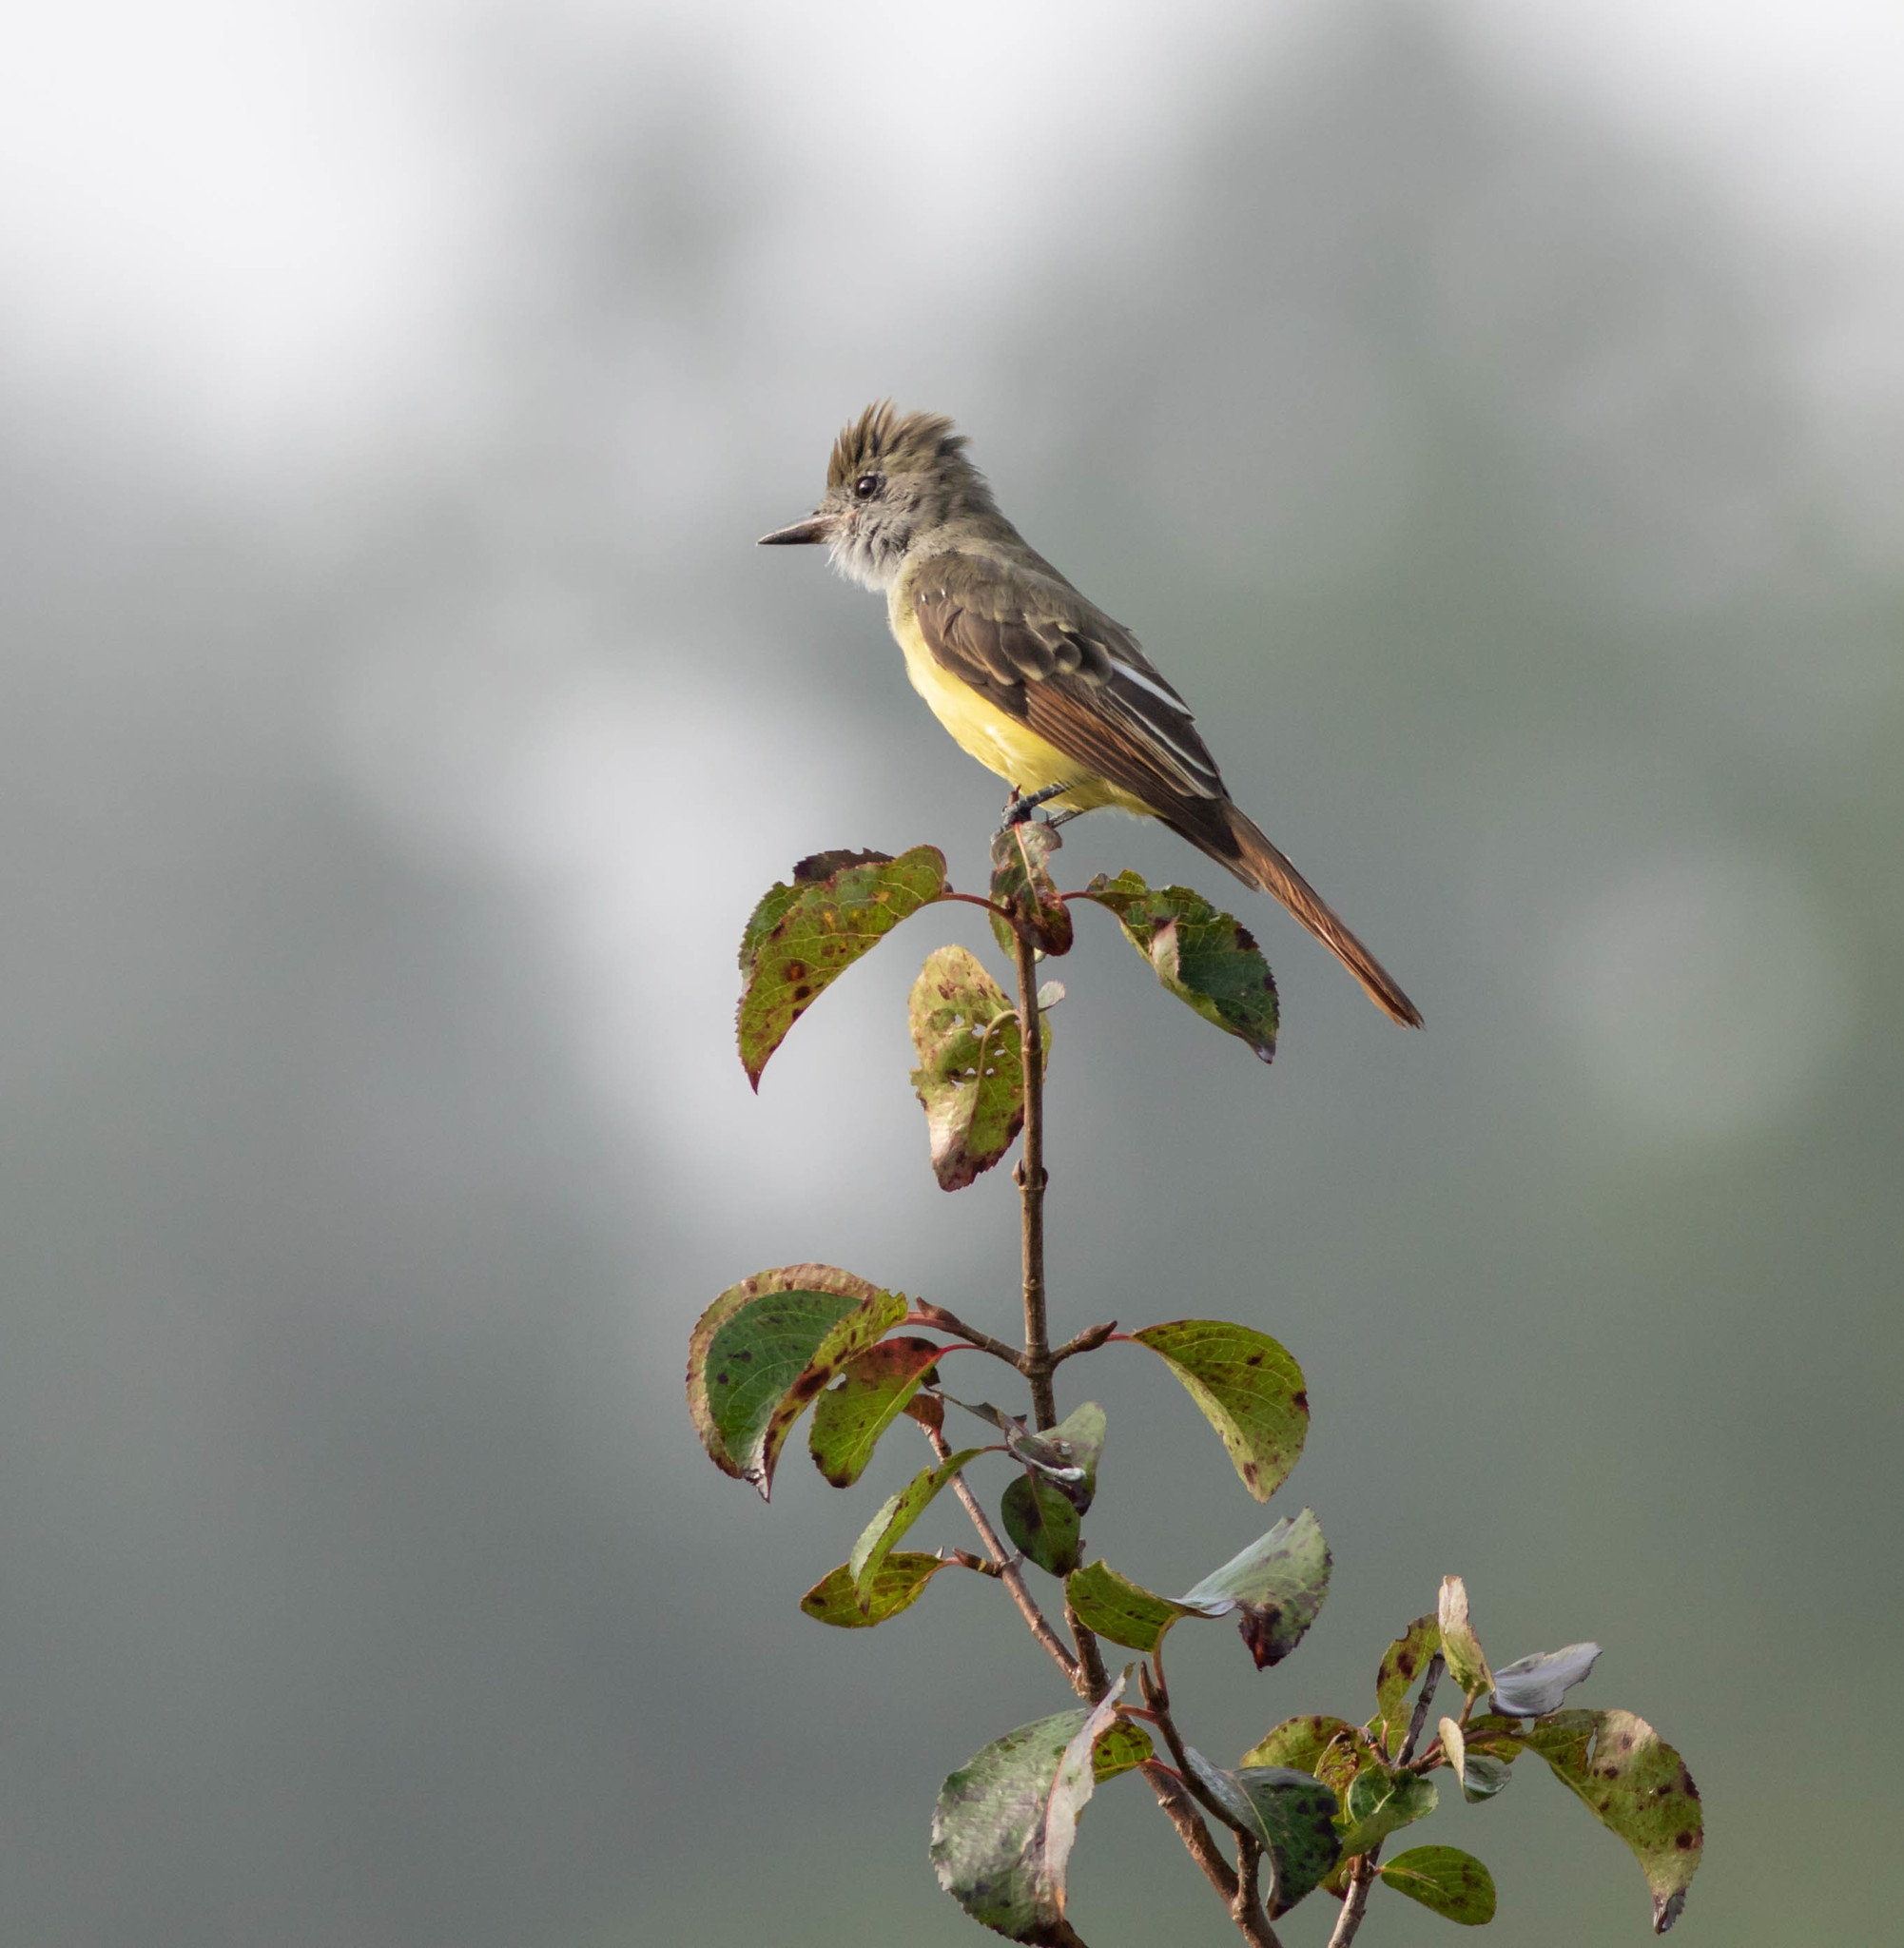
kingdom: Animalia
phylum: Chordata
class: Aves
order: Passeriformes
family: Tyrannidae
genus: Myiarchus
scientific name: Myiarchus crinitus
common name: Great crested flycatcher
